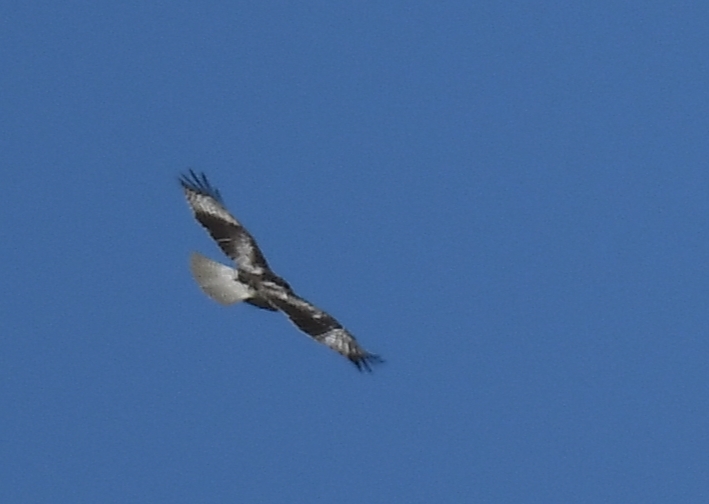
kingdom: Animalia
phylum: Chordata
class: Aves
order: Accipitriformes
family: Accipitridae
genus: Buteo
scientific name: Buteo jamaicensis
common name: Red-tailed hawk
